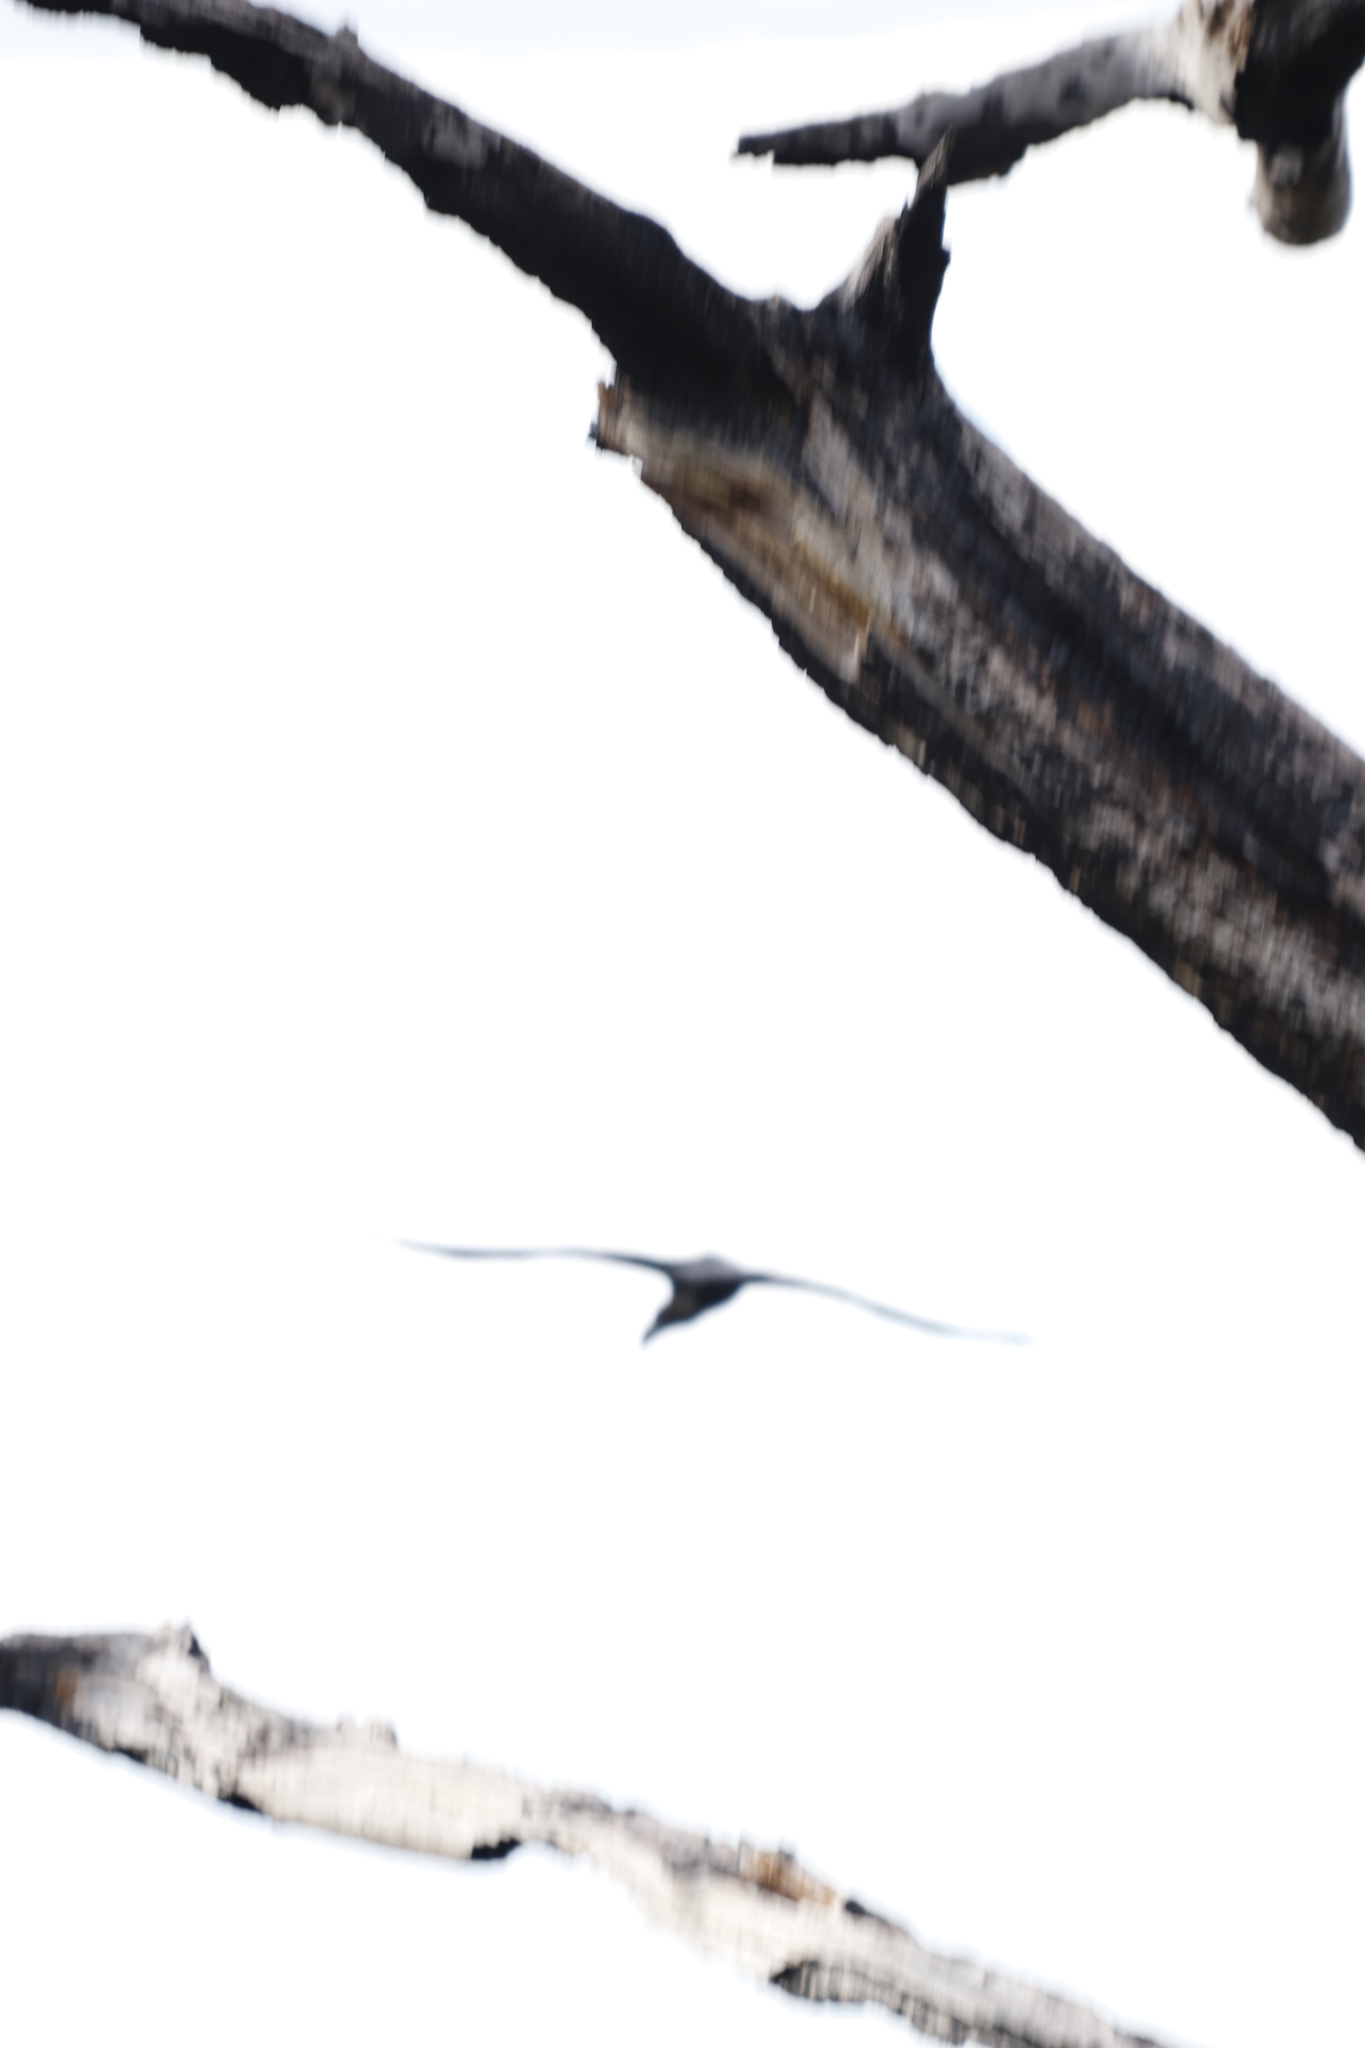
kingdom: Animalia
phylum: Chordata
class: Aves
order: Passeriformes
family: Corvidae
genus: Corvus
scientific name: Corvus albicollis
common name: White-necked raven
